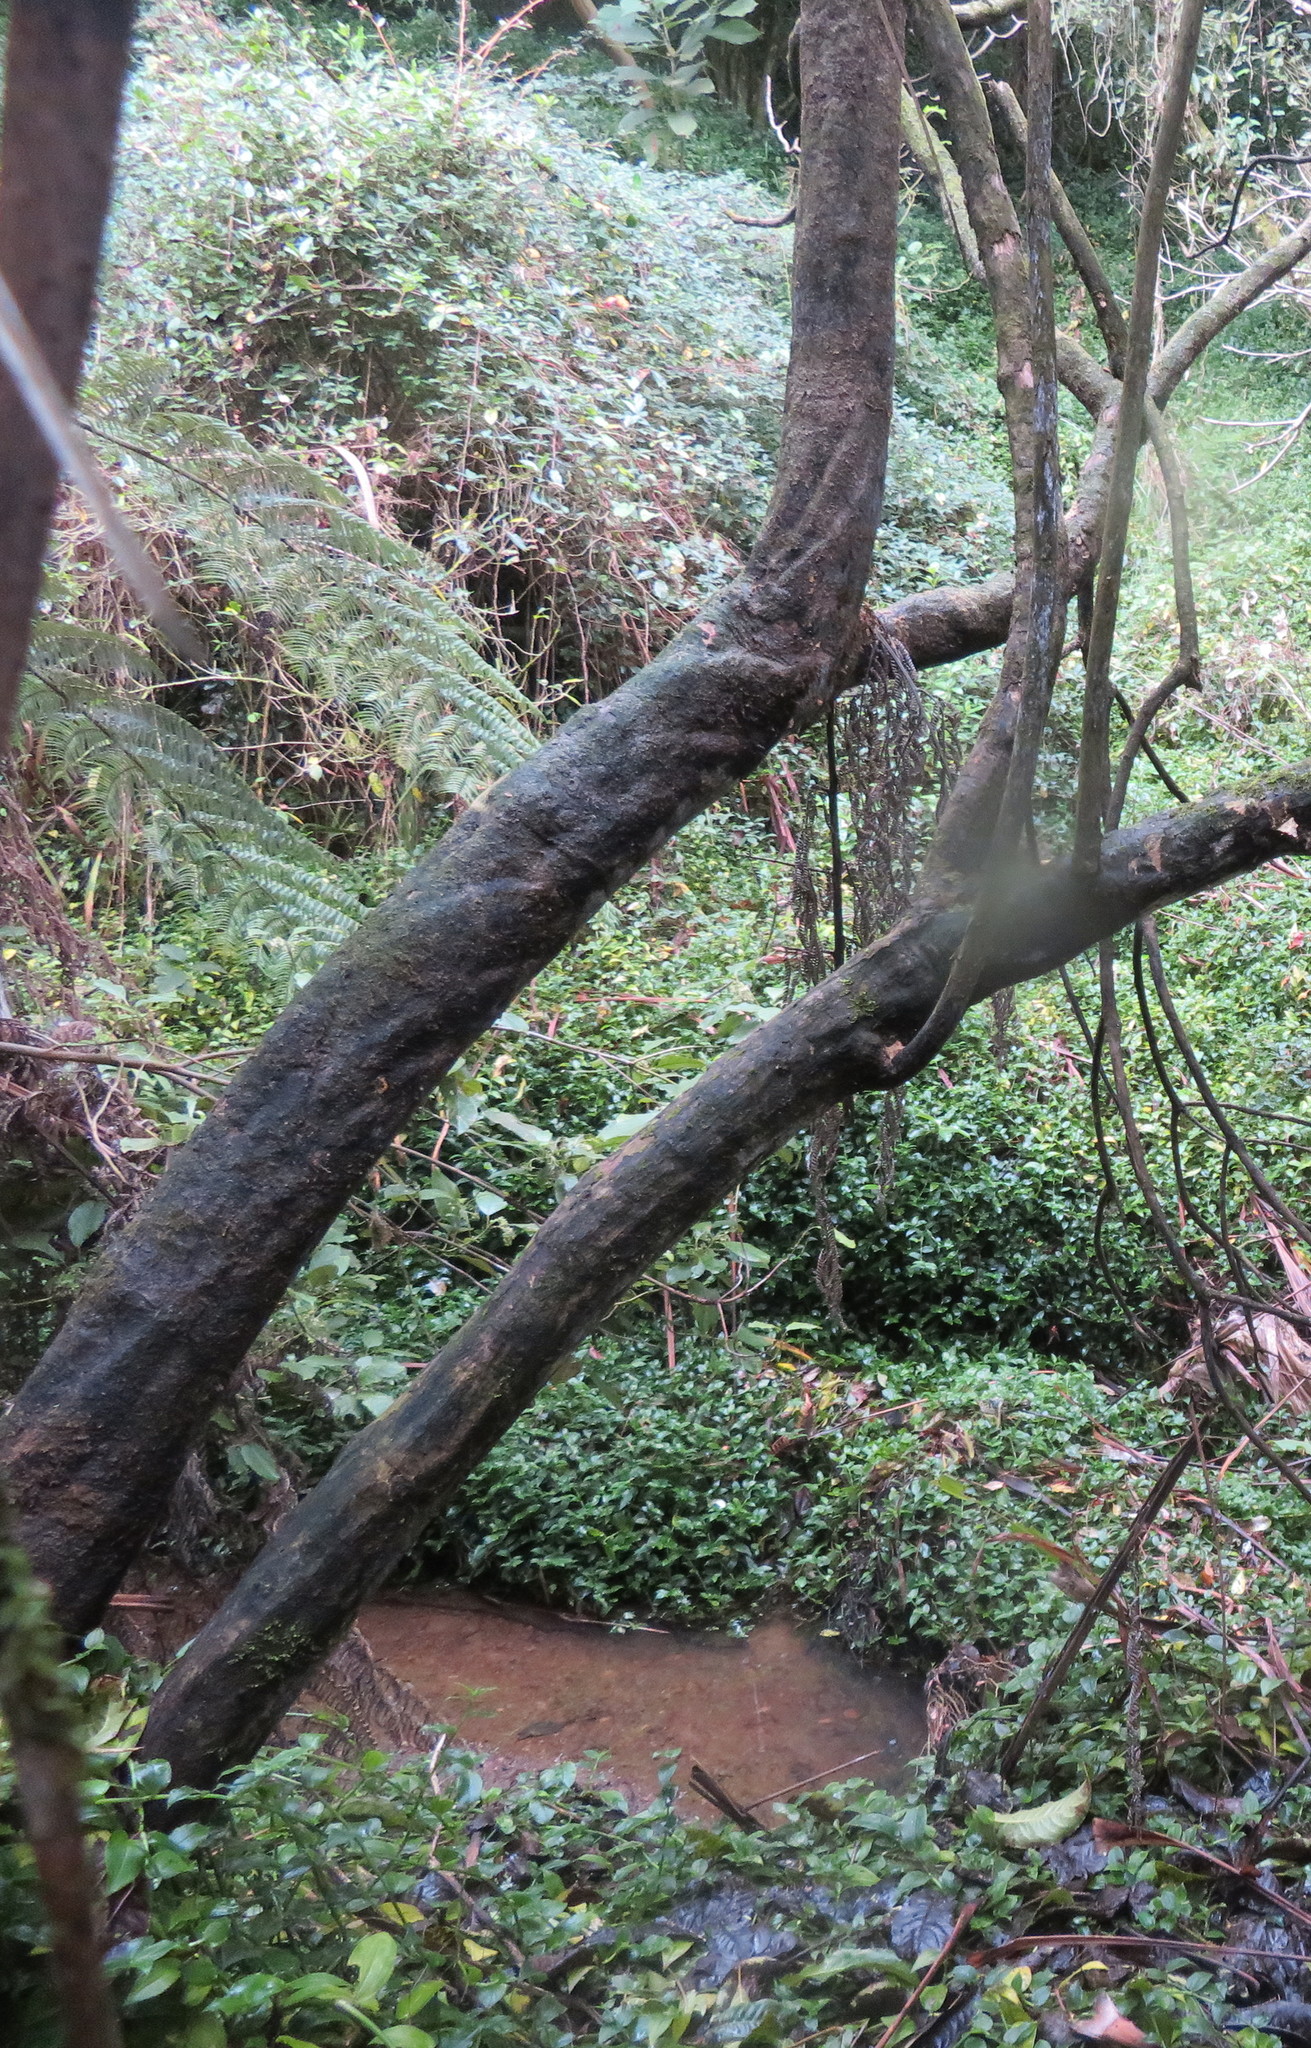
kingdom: Plantae
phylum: Tracheophyta
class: Liliopsida
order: Commelinales
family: Commelinaceae
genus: Tradescantia
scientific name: Tradescantia fluminensis
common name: Wandering-jew
